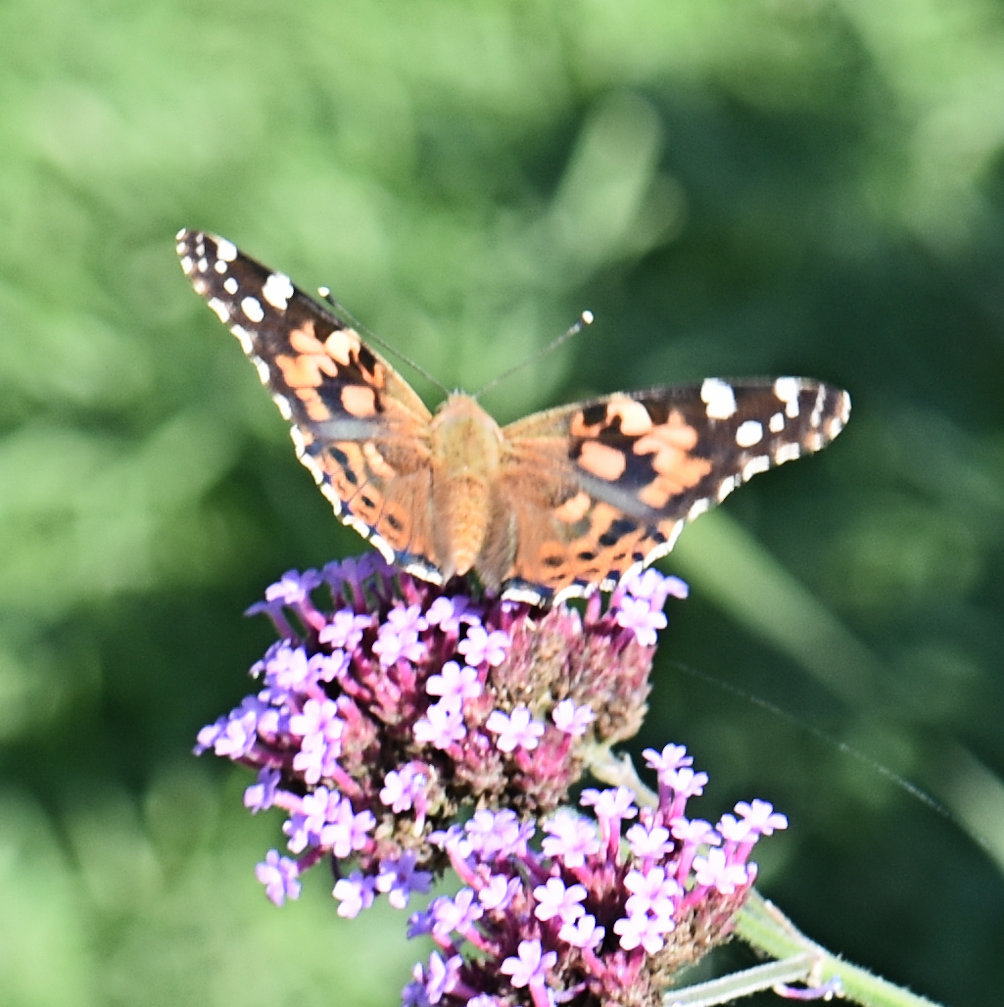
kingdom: Animalia
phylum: Arthropoda
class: Insecta
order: Lepidoptera
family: Nymphalidae
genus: Vanessa
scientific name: Vanessa cardui
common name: Painted lady
